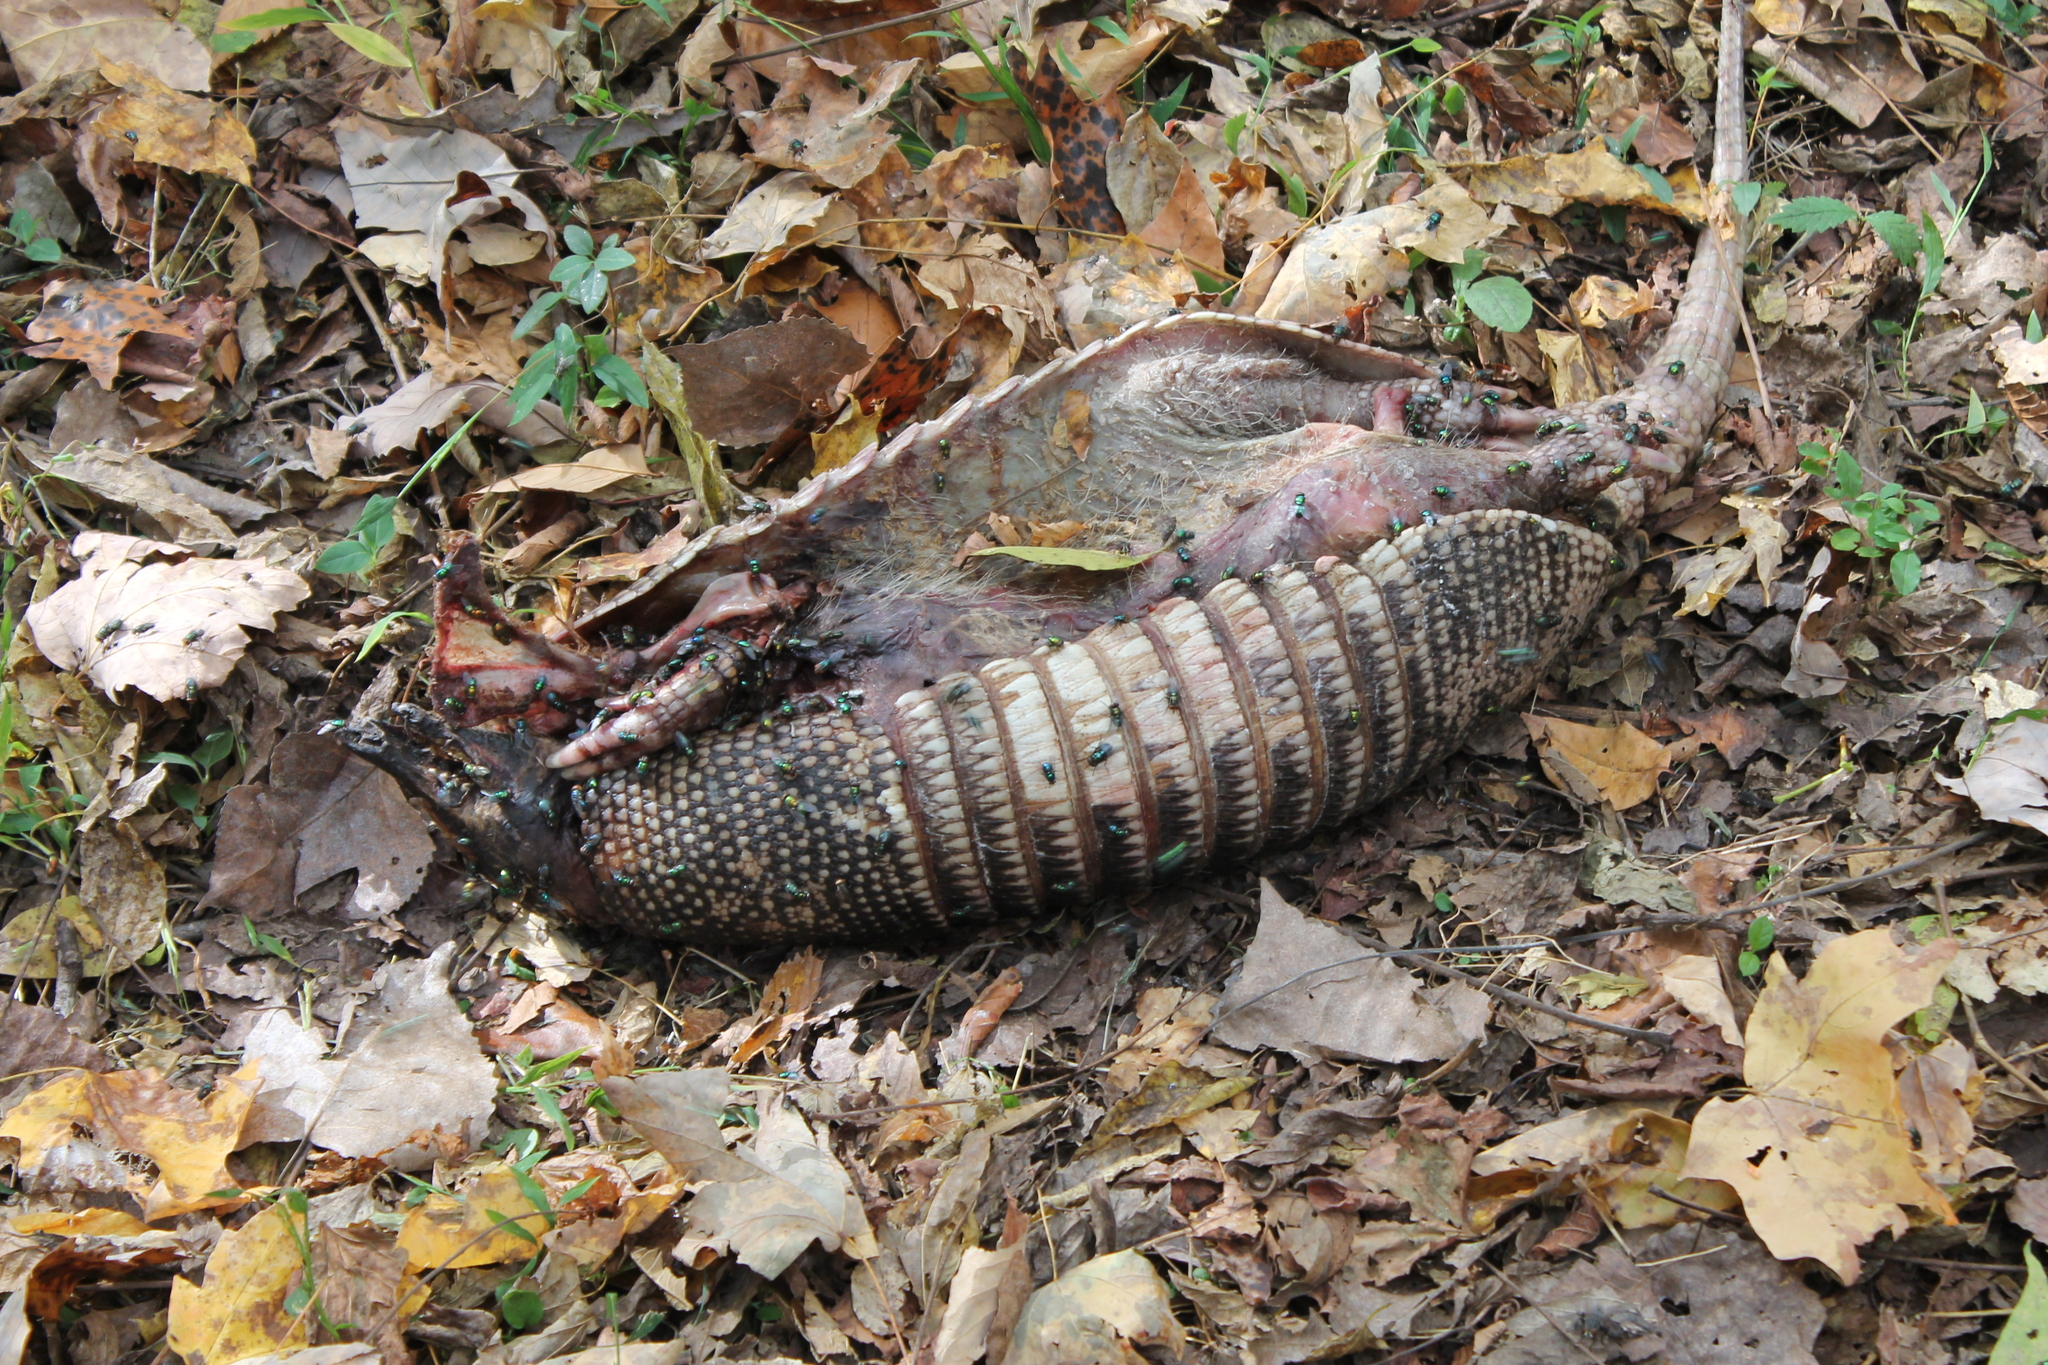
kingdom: Animalia
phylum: Chordata
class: Mammalia
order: Cingulata
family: Dasypodidae
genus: Dasypus
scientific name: Dasypus novemcinctus
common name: Nine-banded armadillo
